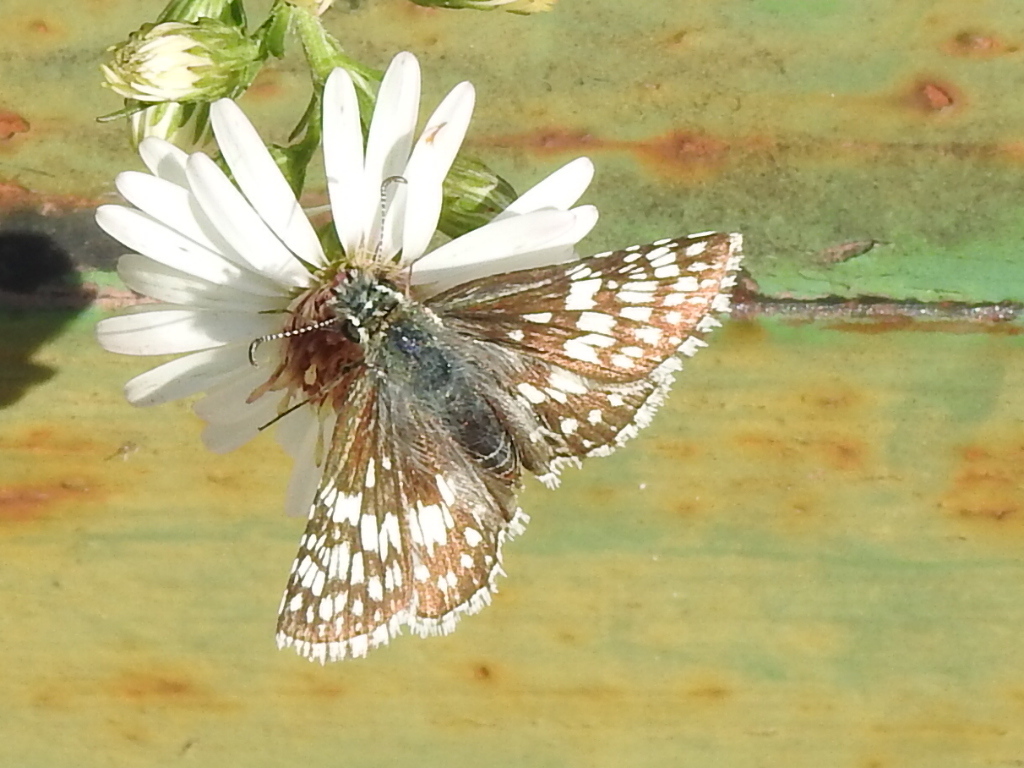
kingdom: Animalia
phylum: Arthropoda
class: Insecta
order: Lepidoptera
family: Hesperiidae
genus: Burnsius
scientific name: Burnsius
